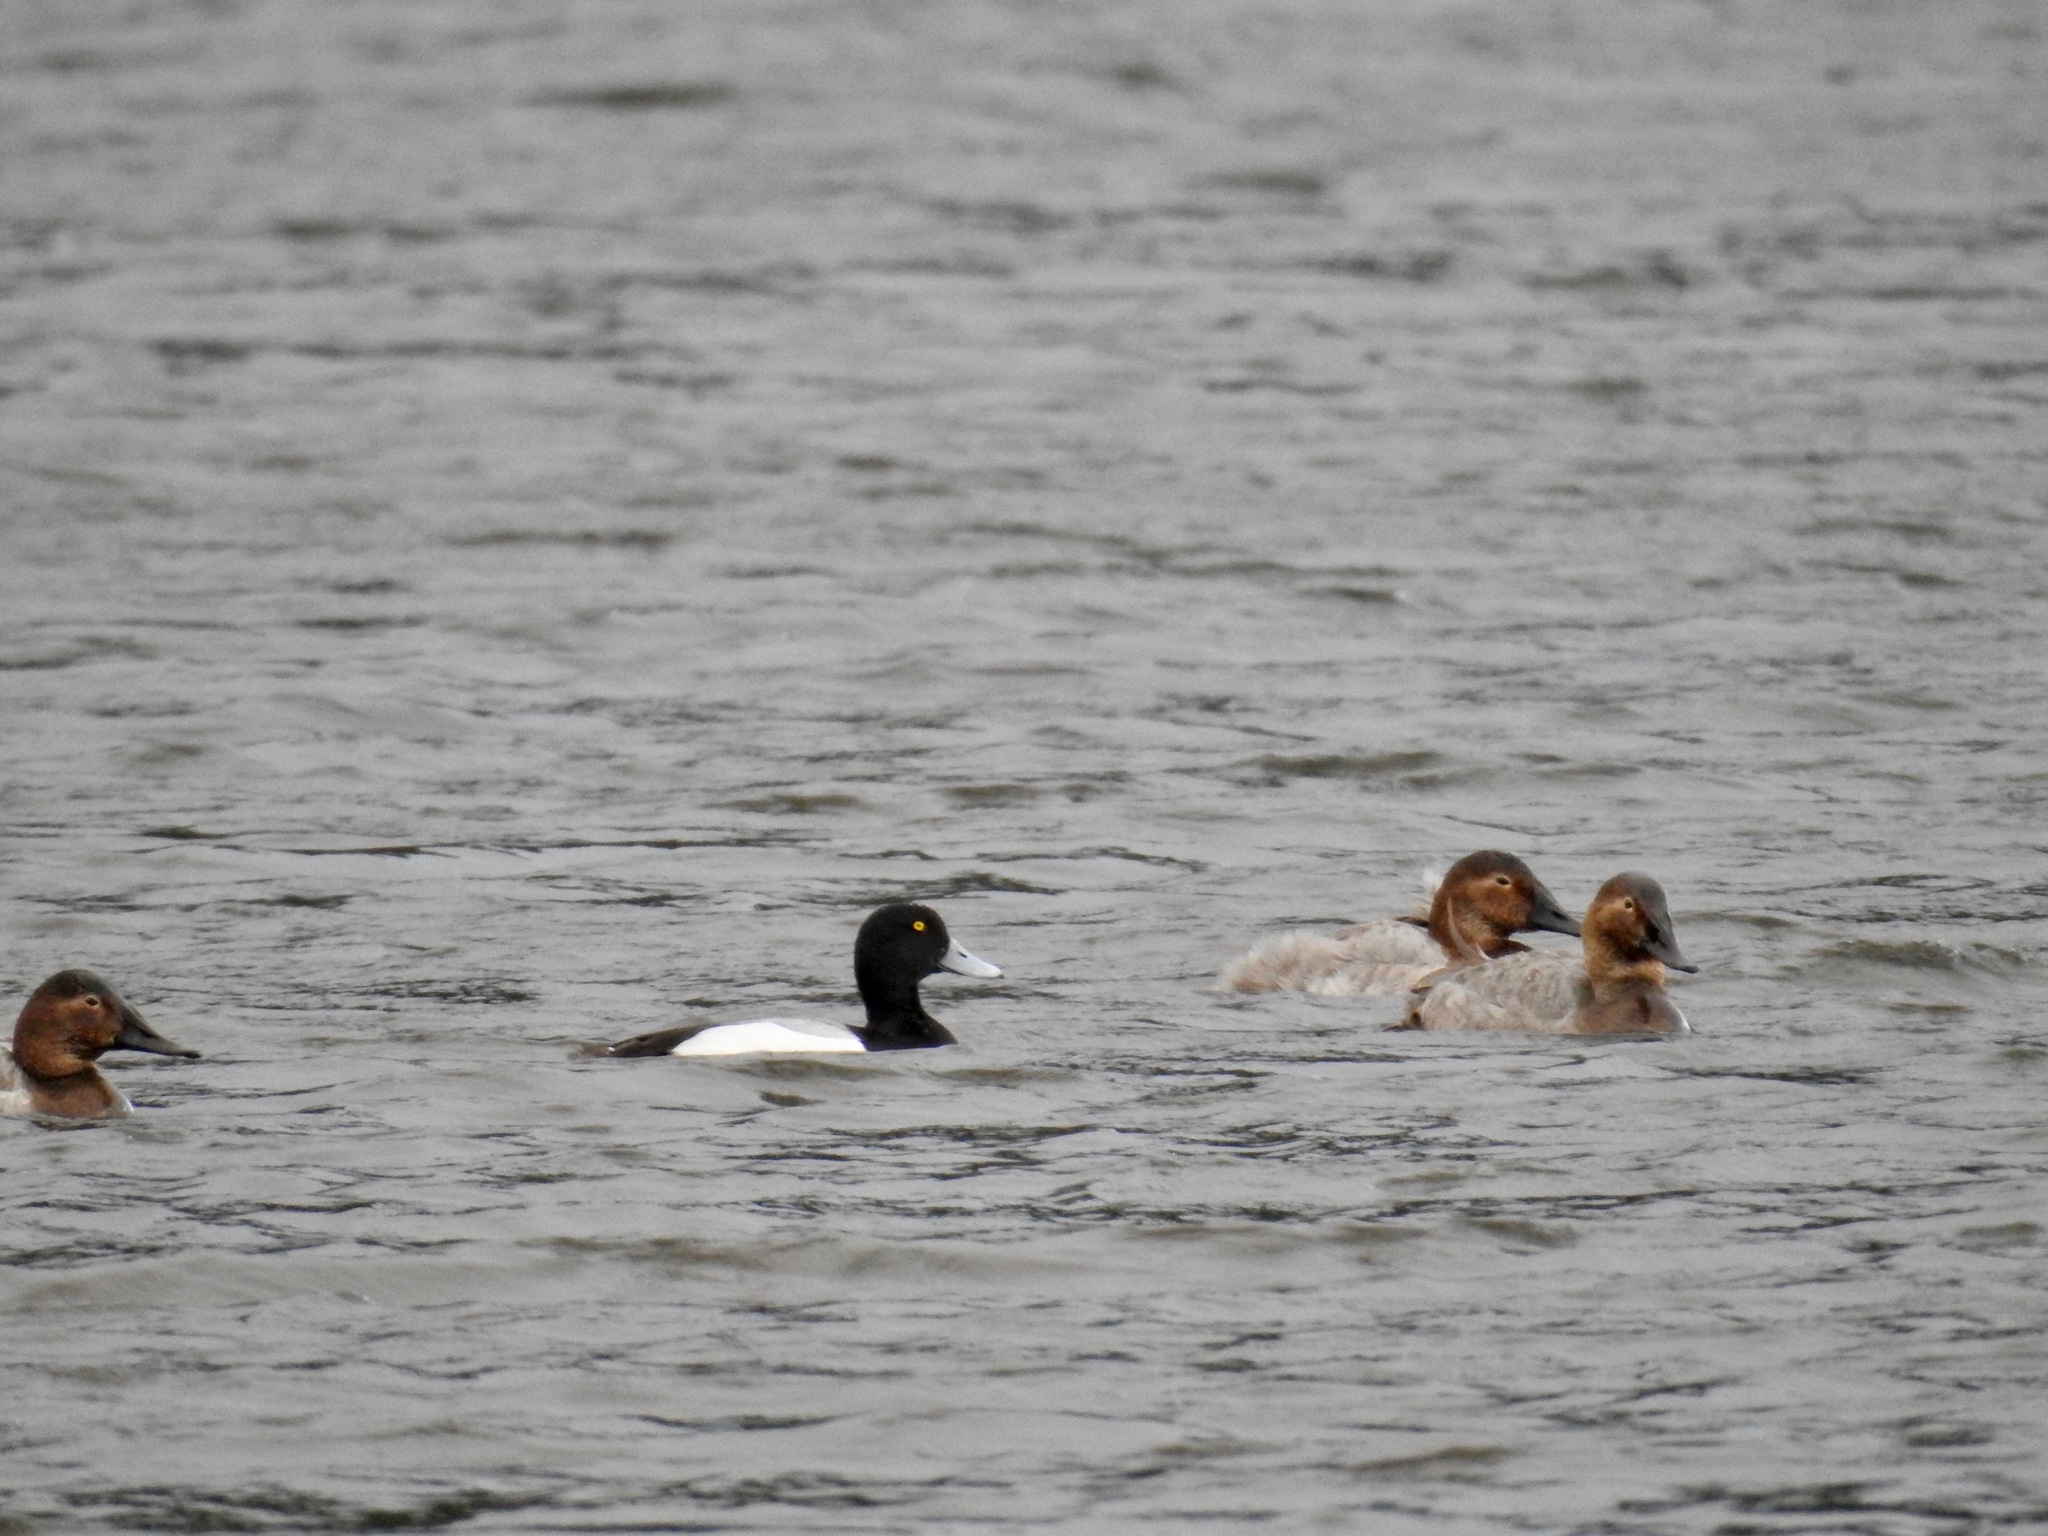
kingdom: Animalia
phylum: Chordata
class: Aves
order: Anseriformes
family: Anatidae
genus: Aythya
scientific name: Aythya marila
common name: Greater scaup
